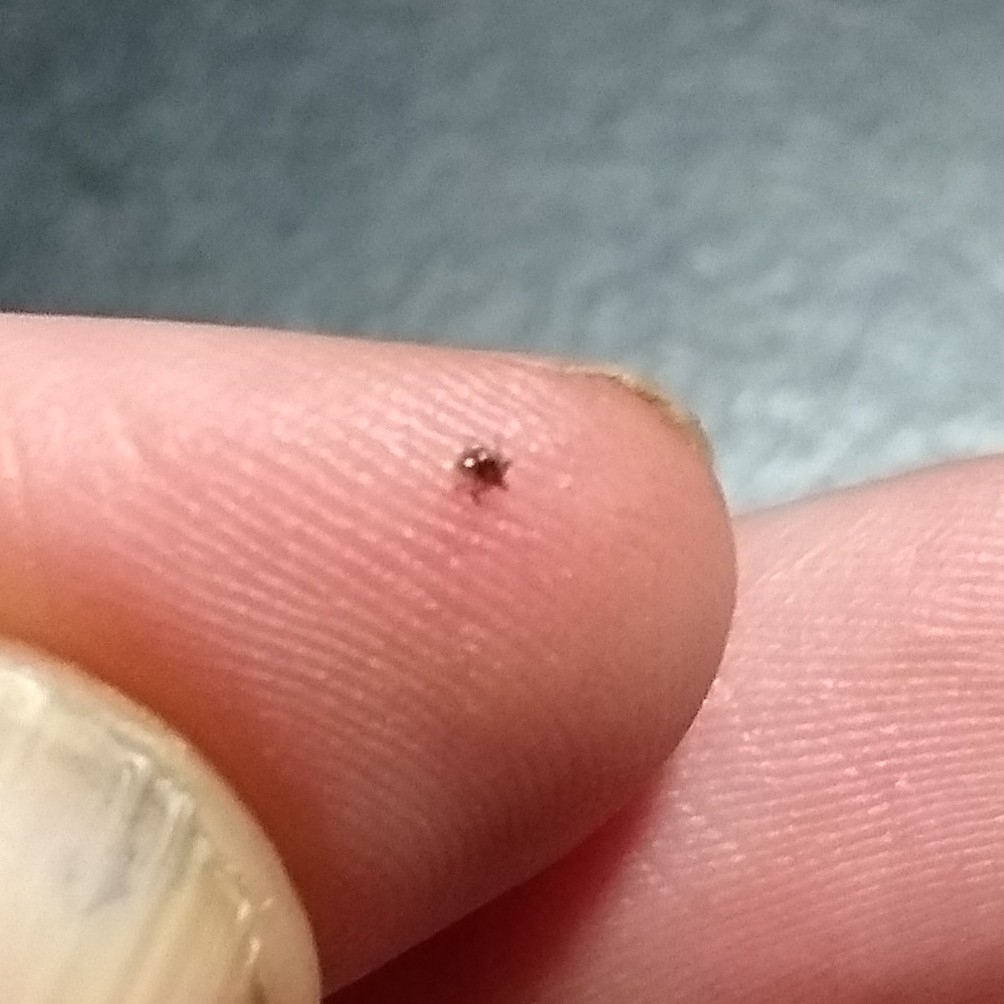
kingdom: Animalia
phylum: Arthropoda
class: Arachnida
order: Ixodida
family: Ixodidae
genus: Ixodes
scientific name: Ixodes scapularis
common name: Black legged tick
